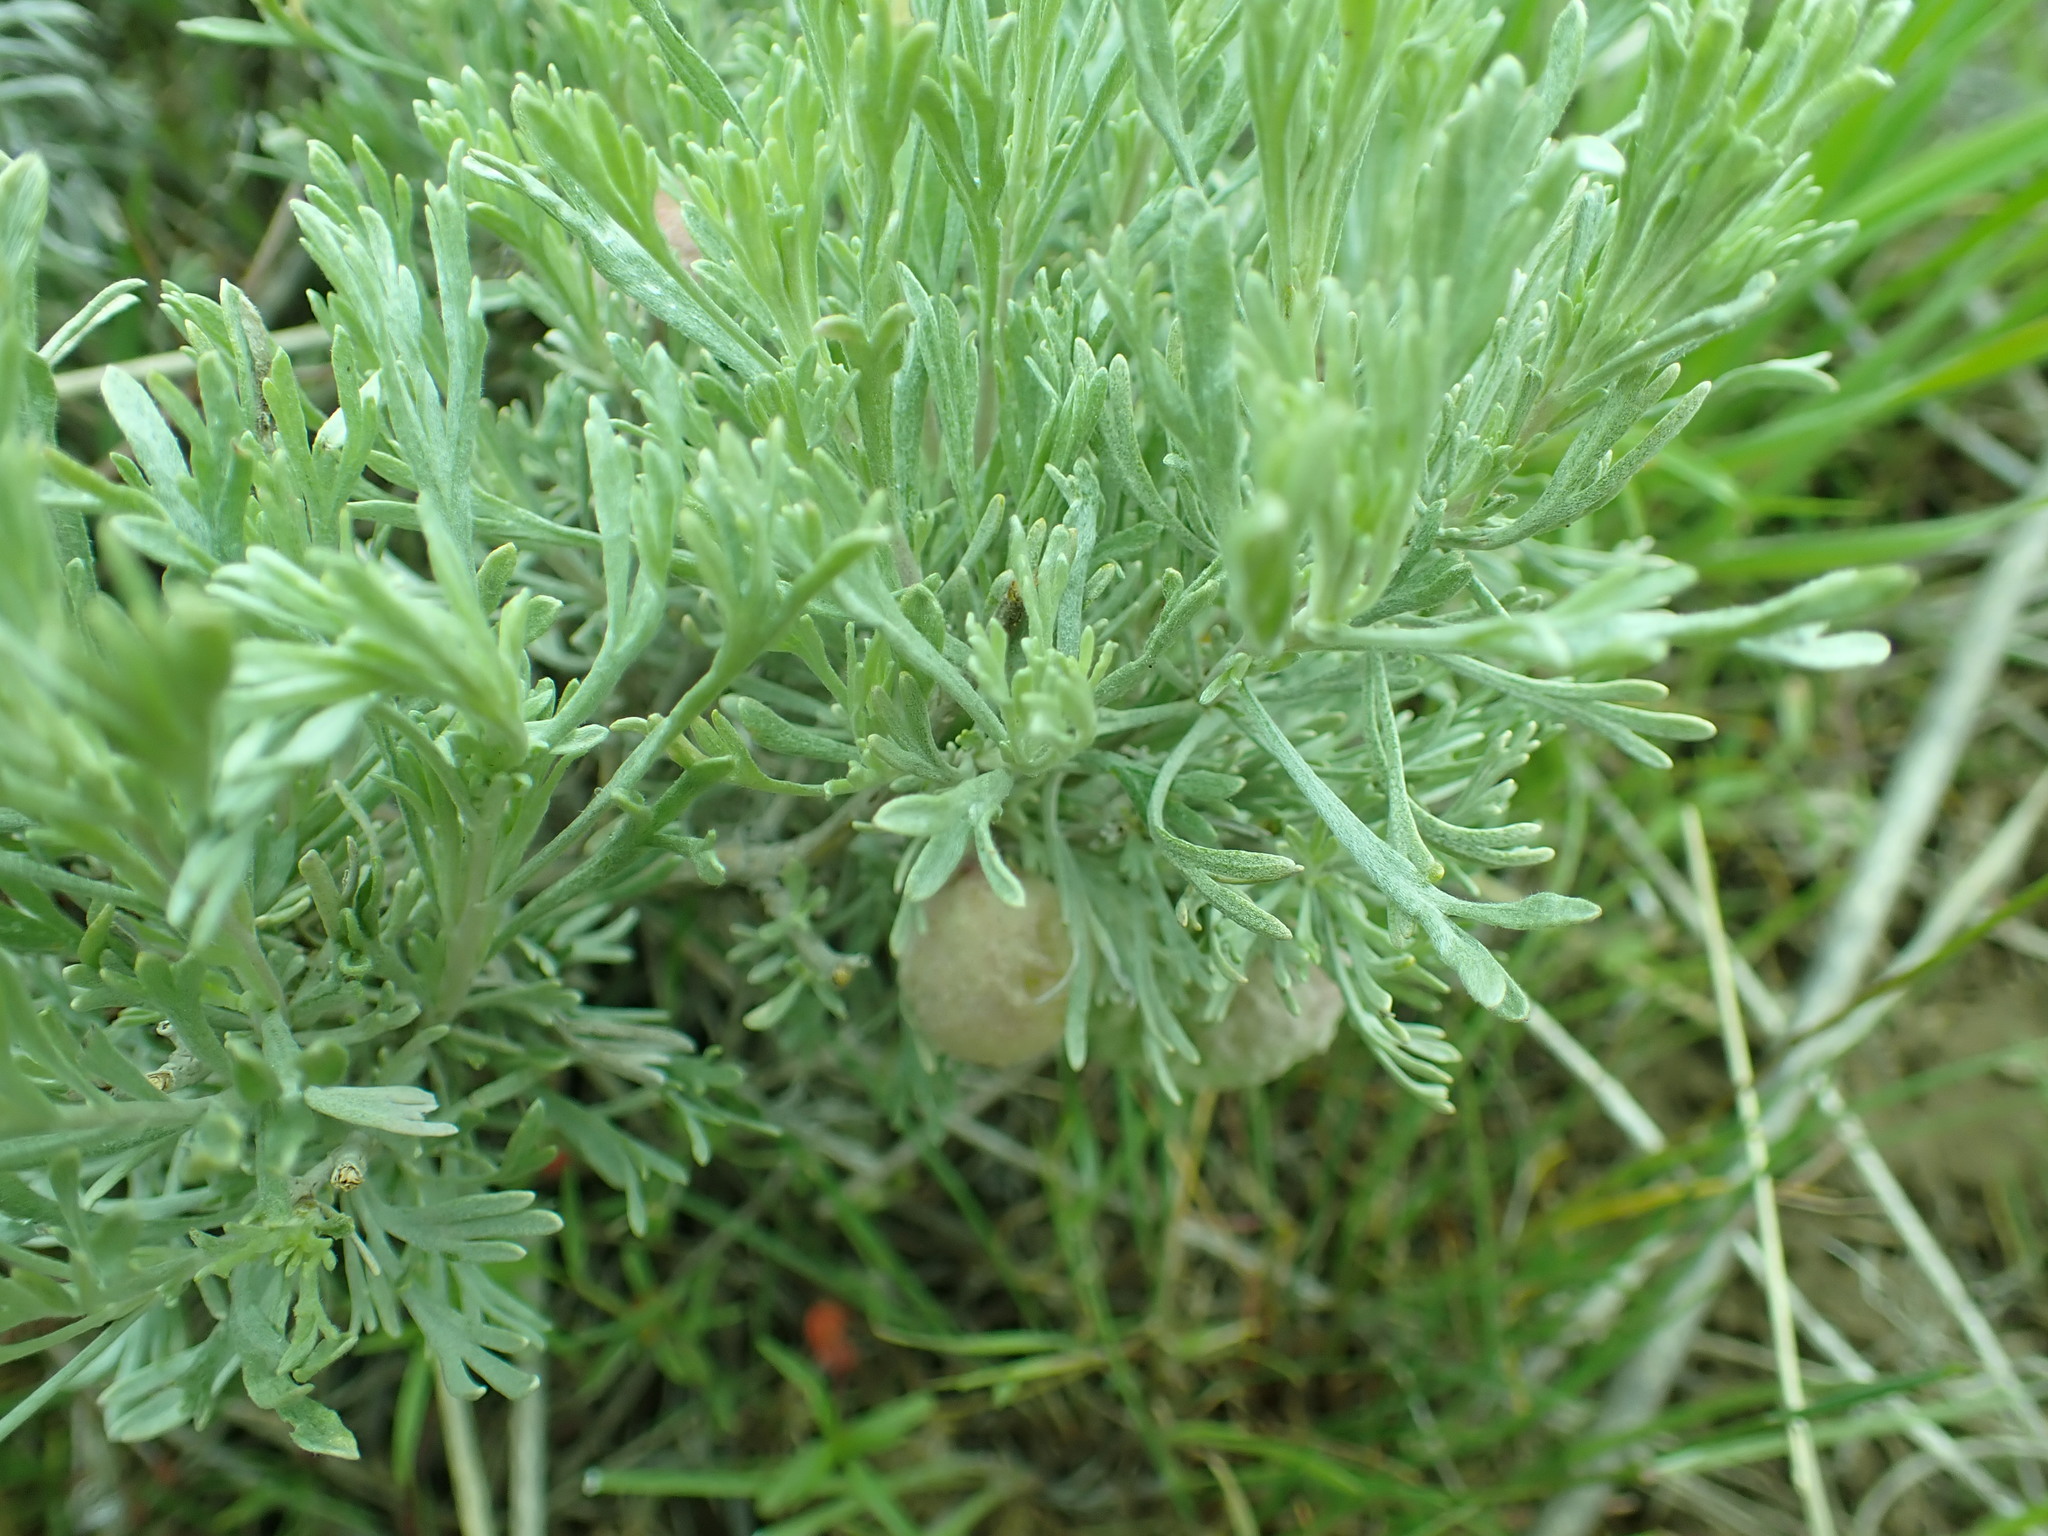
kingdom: Animalia
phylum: Arthropoda
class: Insecta
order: Diptera
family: Cecidomyiidae
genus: Rhopalomyia
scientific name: Rhopalomyia pomum
